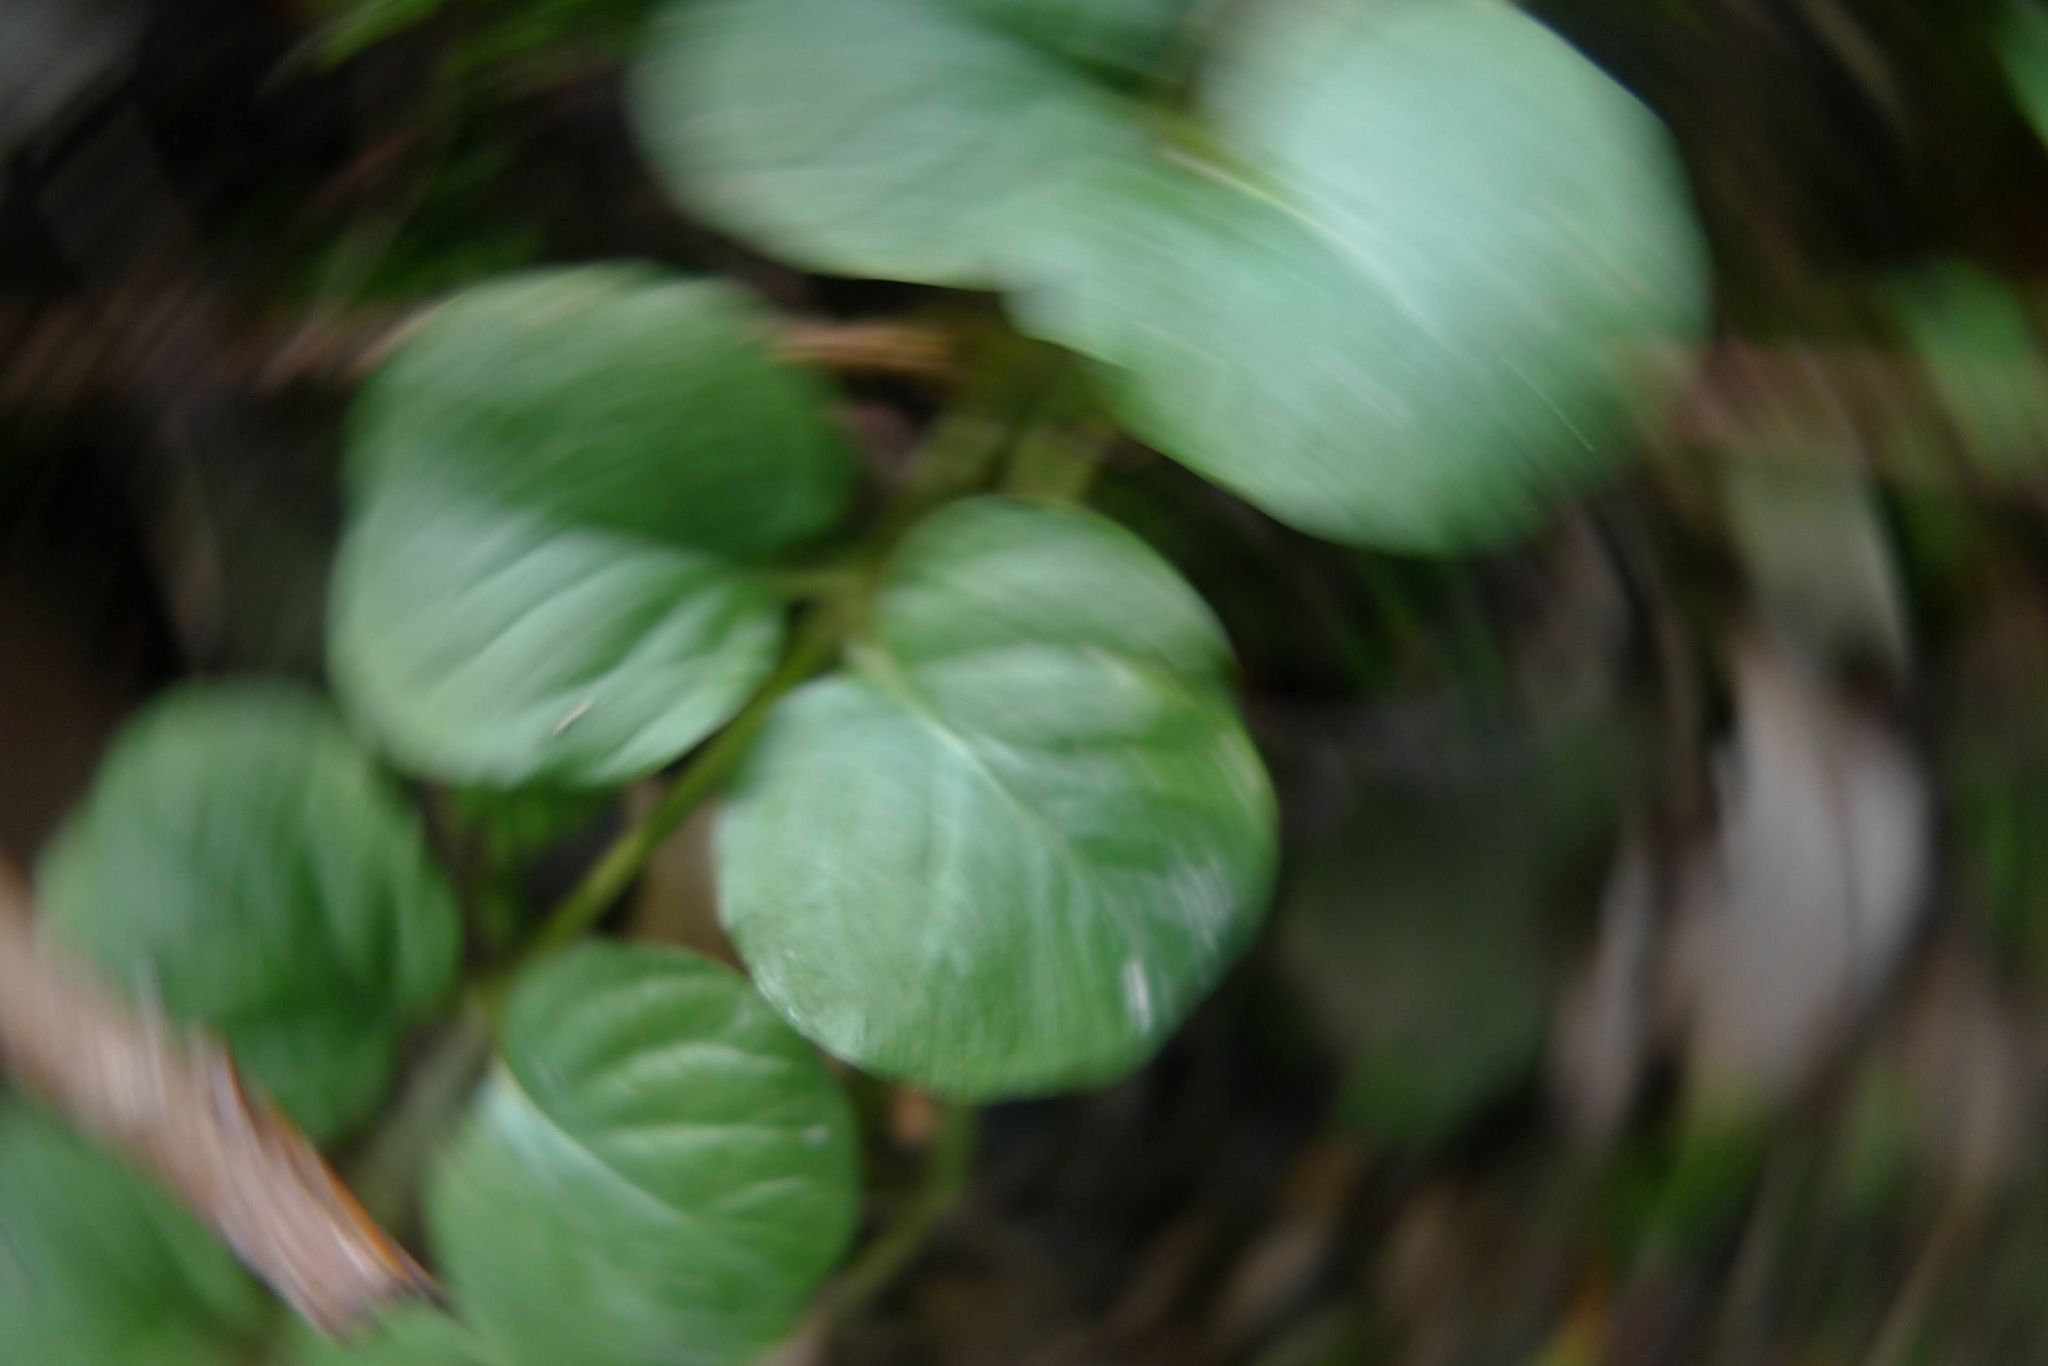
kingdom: Plantae
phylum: Tracheophyta
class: Magnoliopsida
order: Ericales
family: Primulaceae
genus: Lysimachia
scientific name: Lysimachia nummularia
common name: Moneywort
